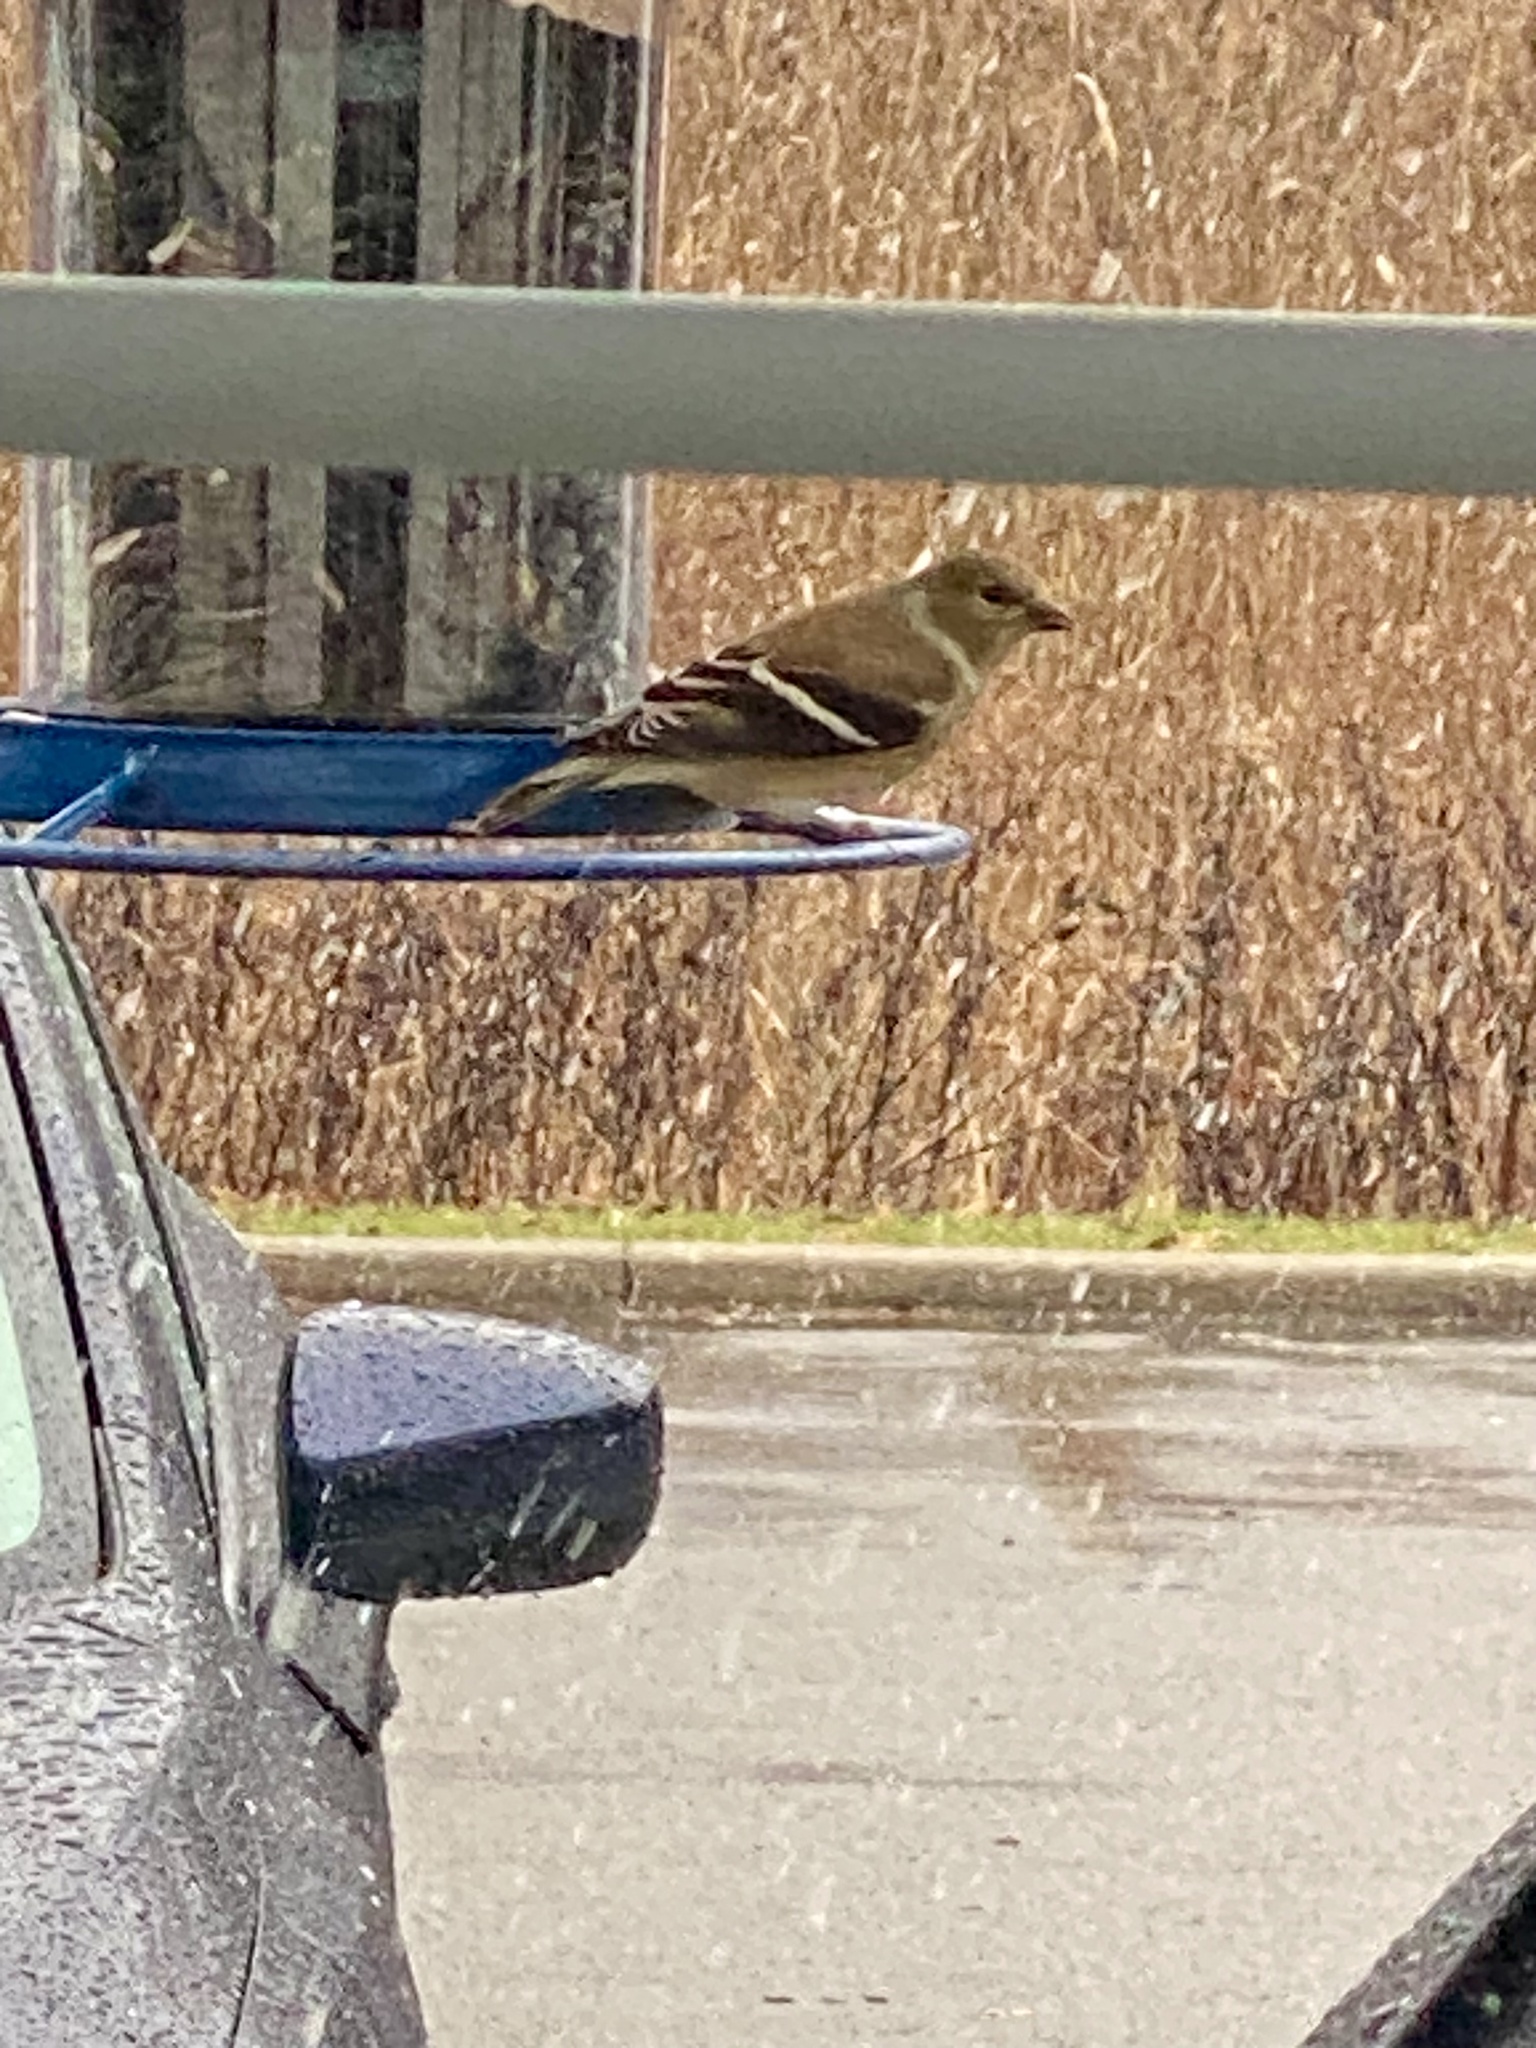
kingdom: Animalia
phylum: Chordata
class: Aves
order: Passeriformes
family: Fringillidae
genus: Spinus
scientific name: Spinus tristis
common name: American goldfinch
